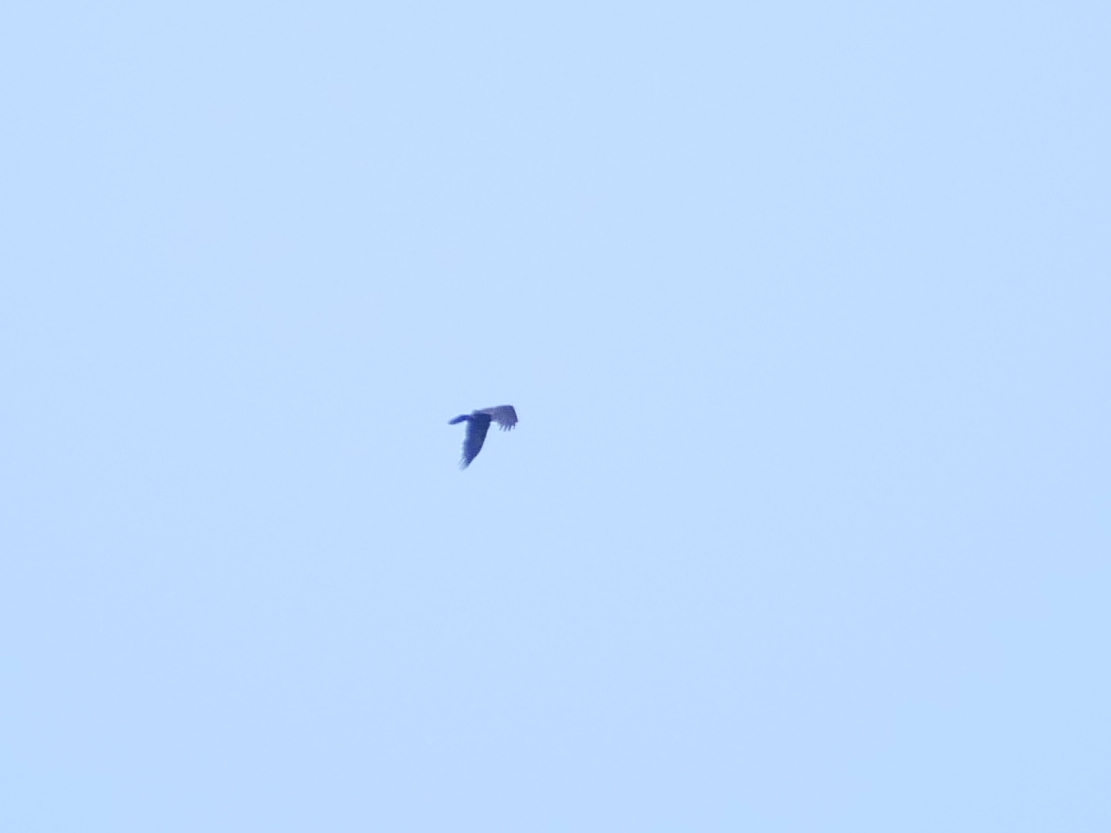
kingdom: Animalia
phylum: Chordata
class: Aves
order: Passeriformes
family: Corvidae
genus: Corvus
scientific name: Corvus corax
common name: Common raven
